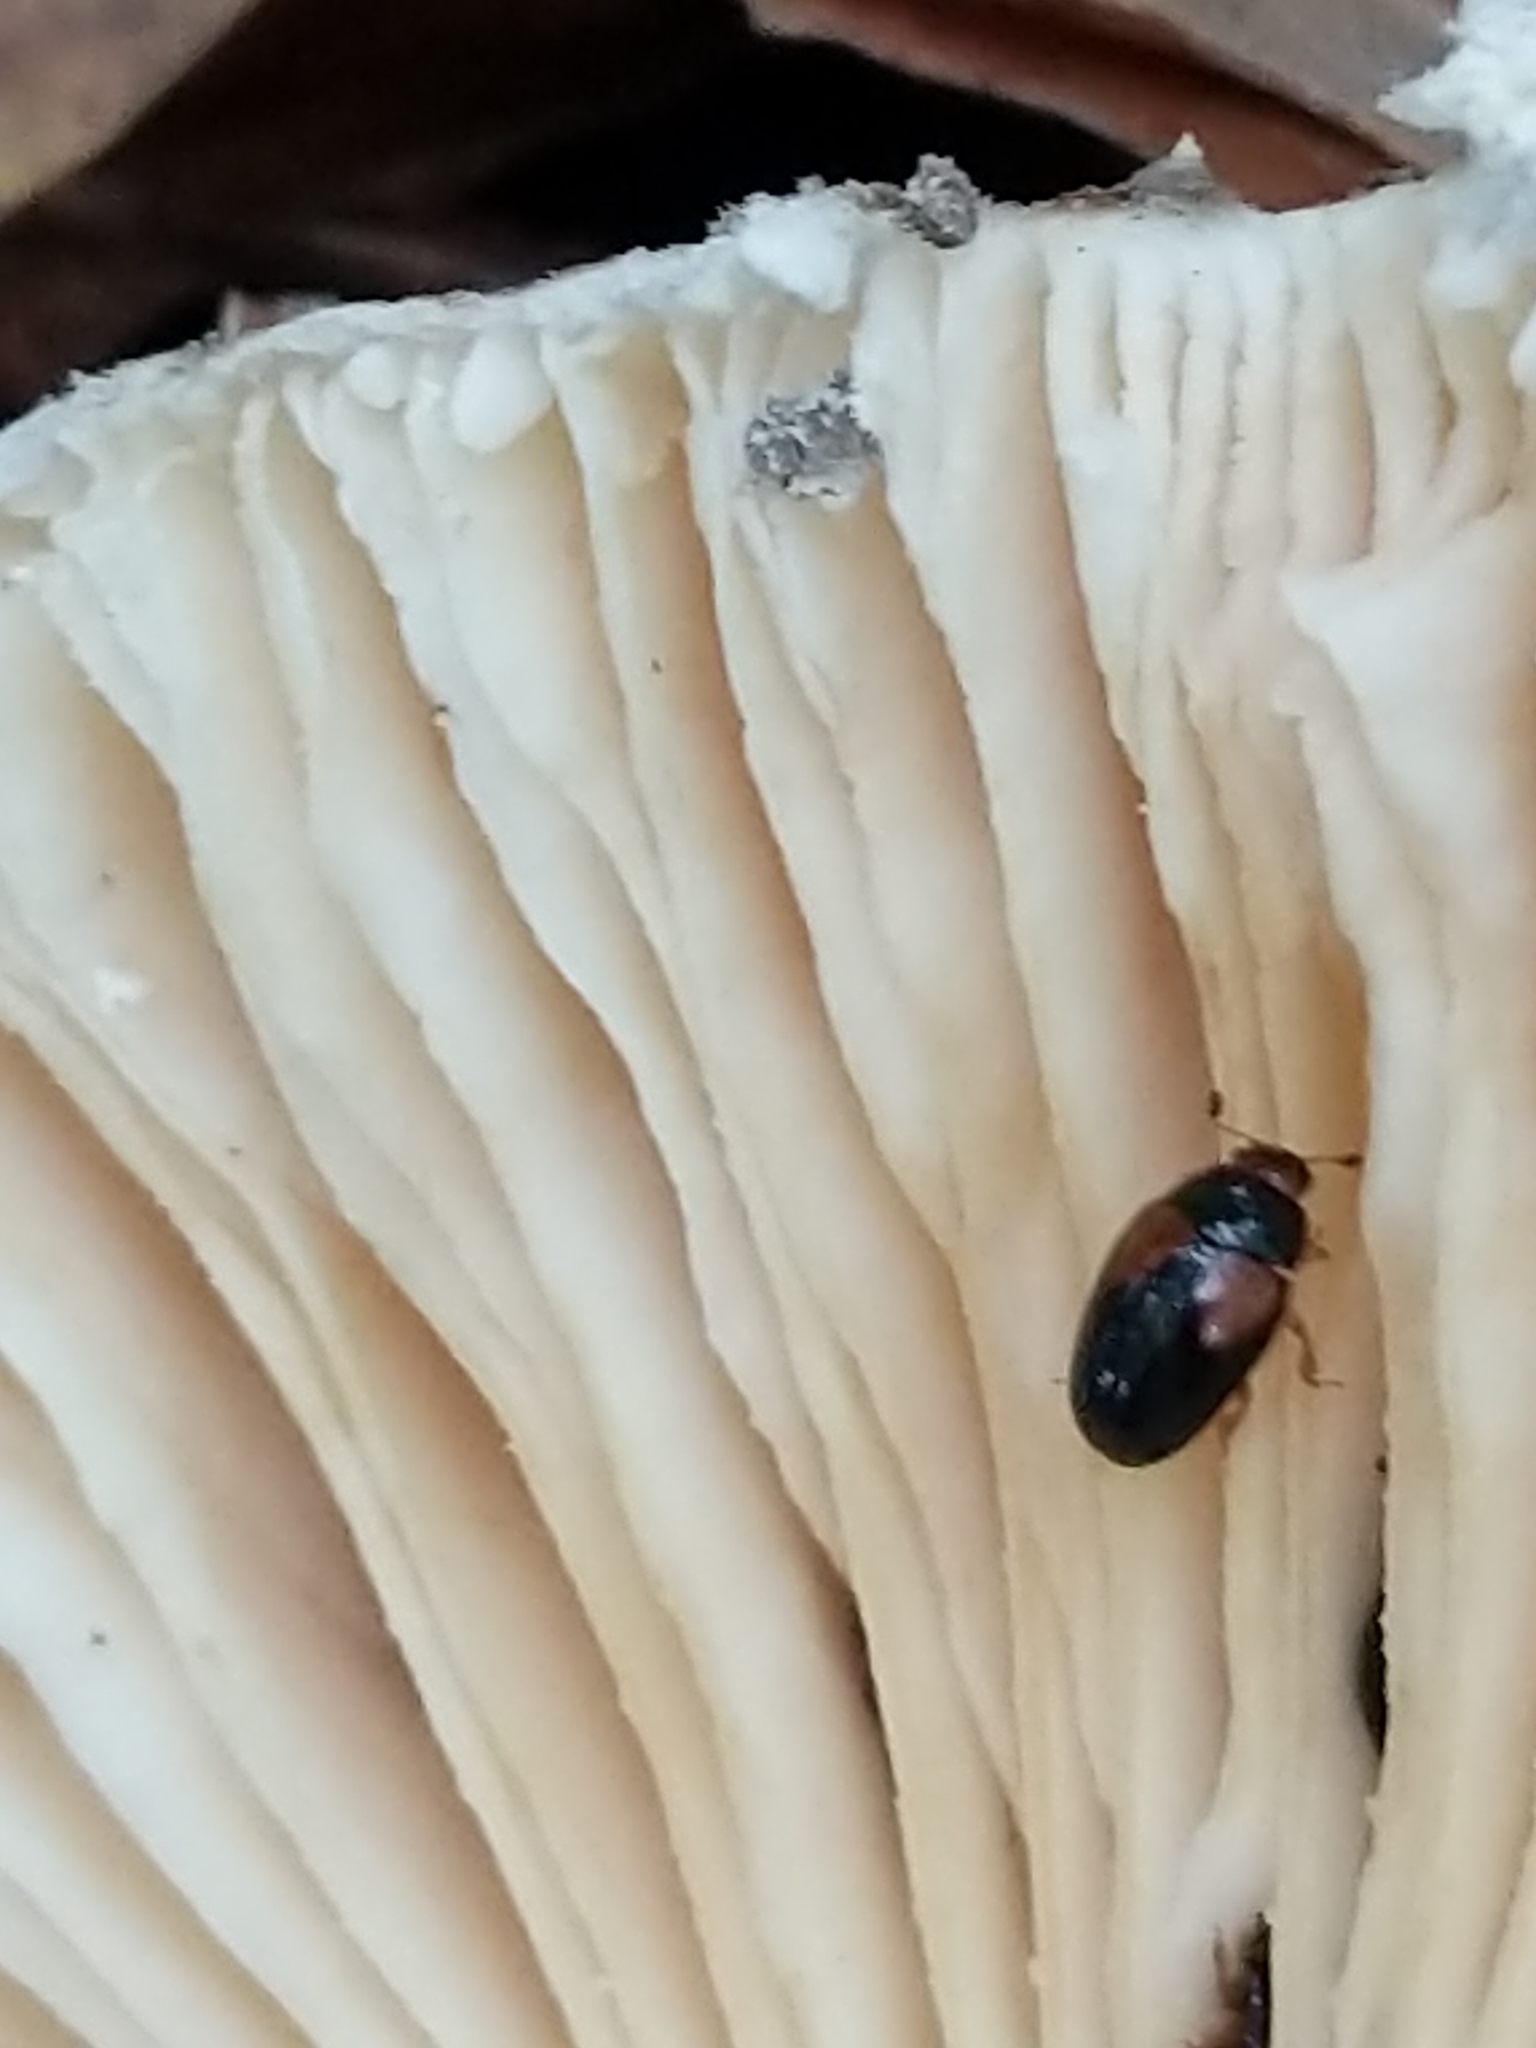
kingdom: Animalia
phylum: Arthropoda
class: Insecta
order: Coleoptera
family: Erotylidae
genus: Tritoma
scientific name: Tritoma biguttata
